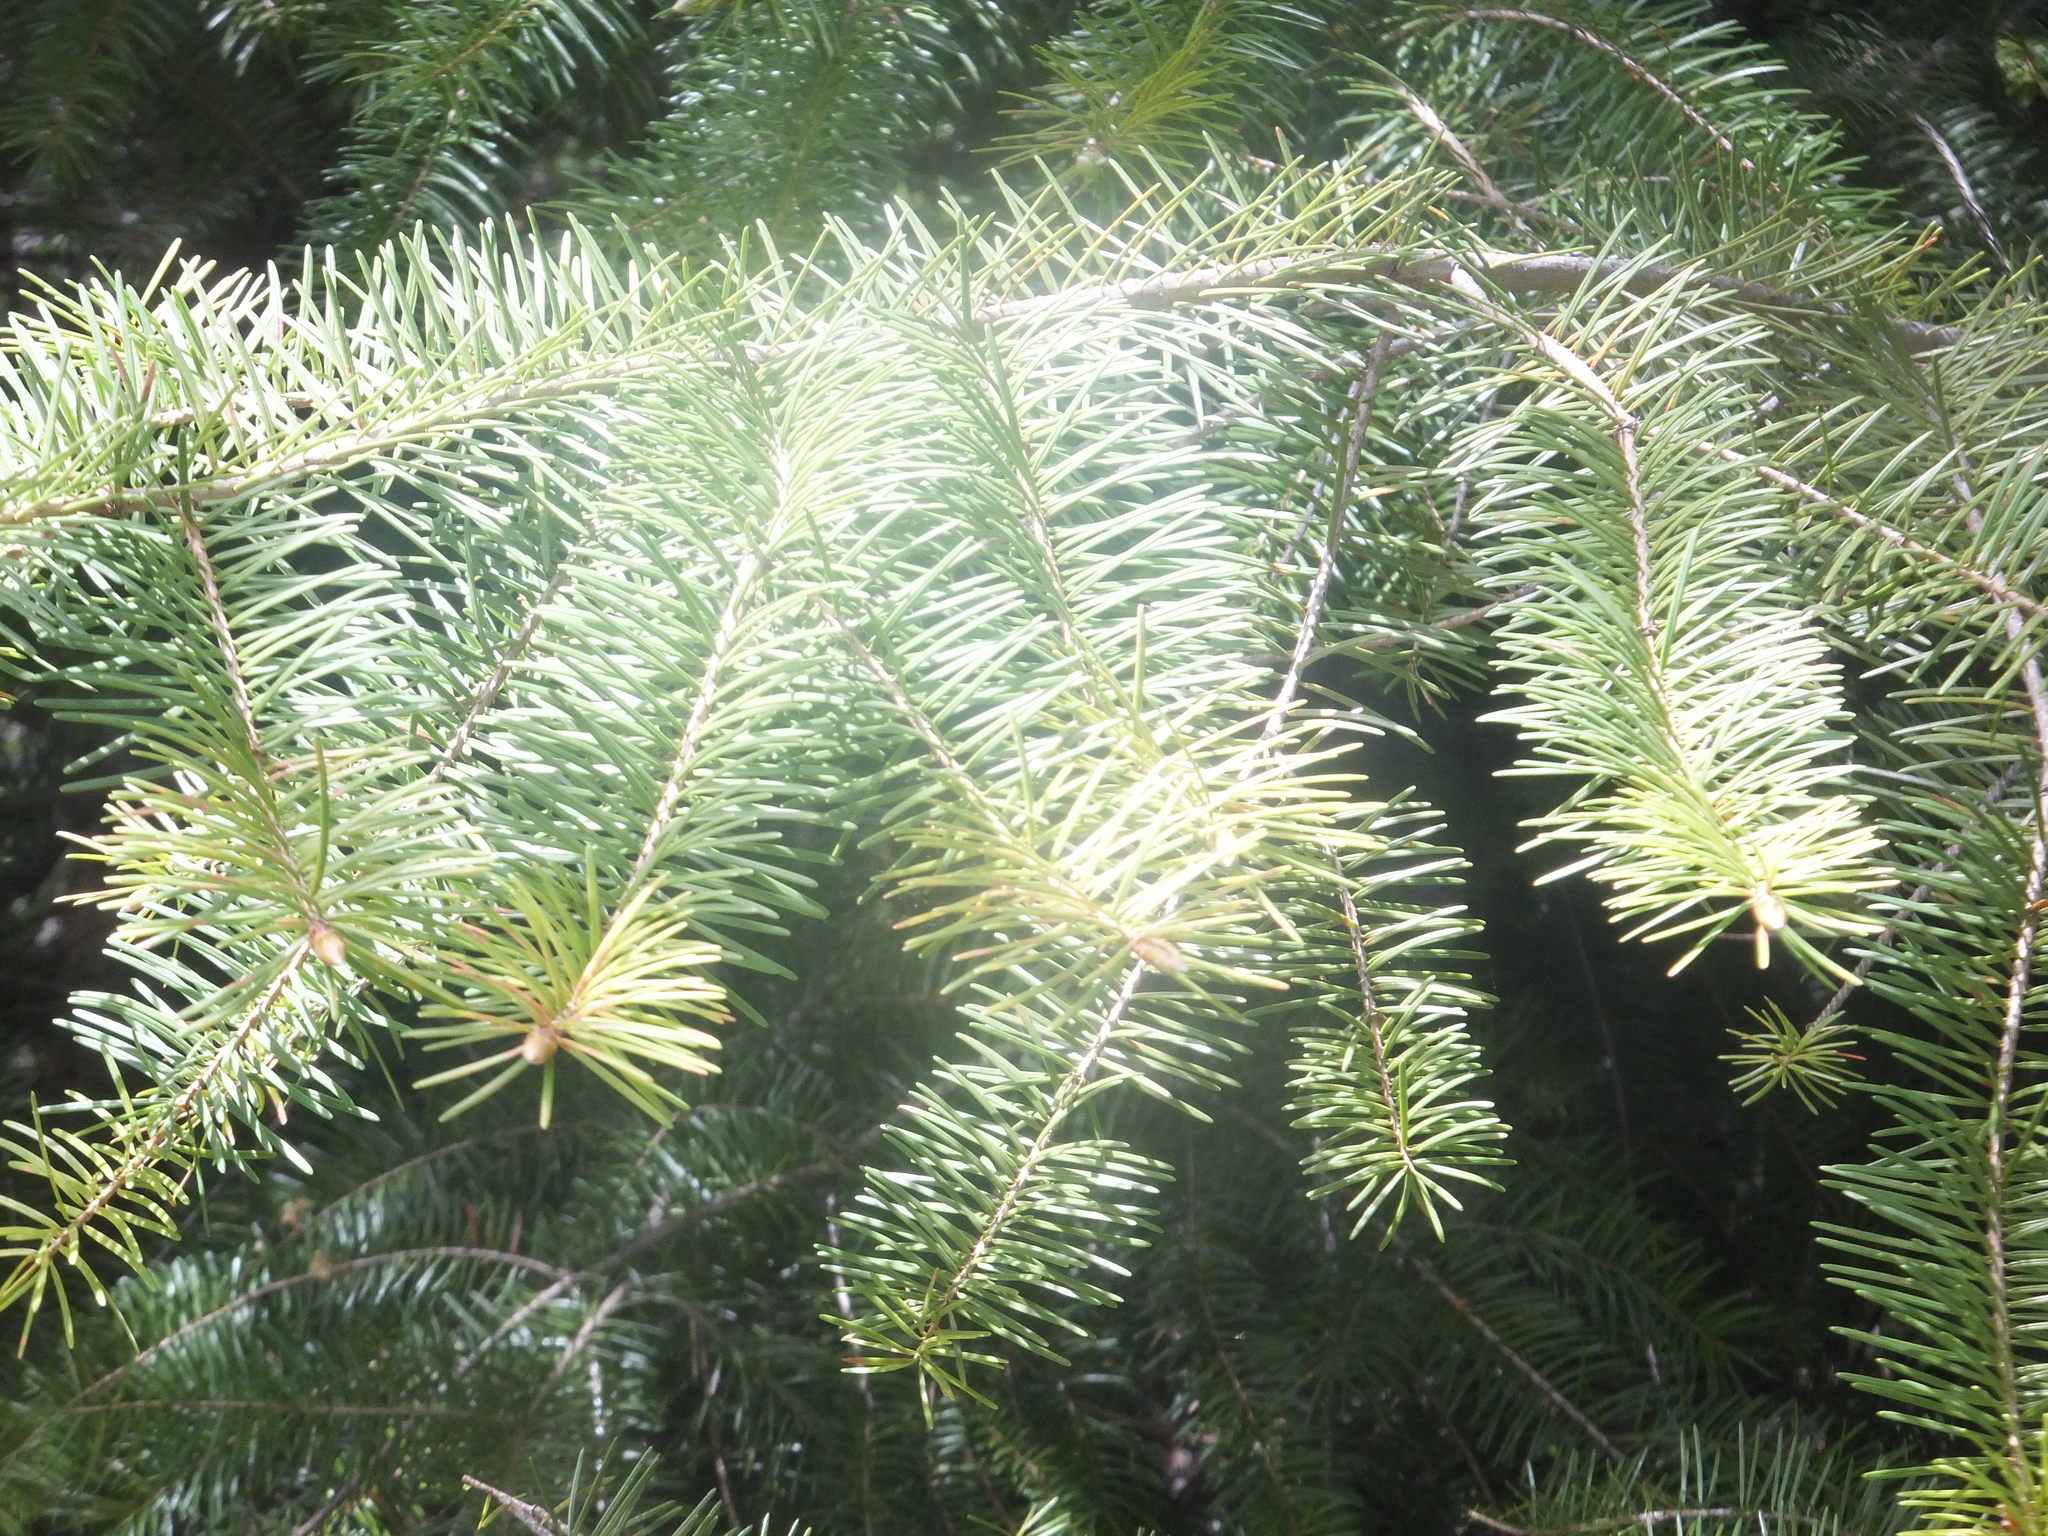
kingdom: Plantae
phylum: Tracheophyta
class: Pinopsida
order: Pinales
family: Pinaceae
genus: Pseudotsuga
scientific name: Pseudotsuga menziesii
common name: Douglas fir
